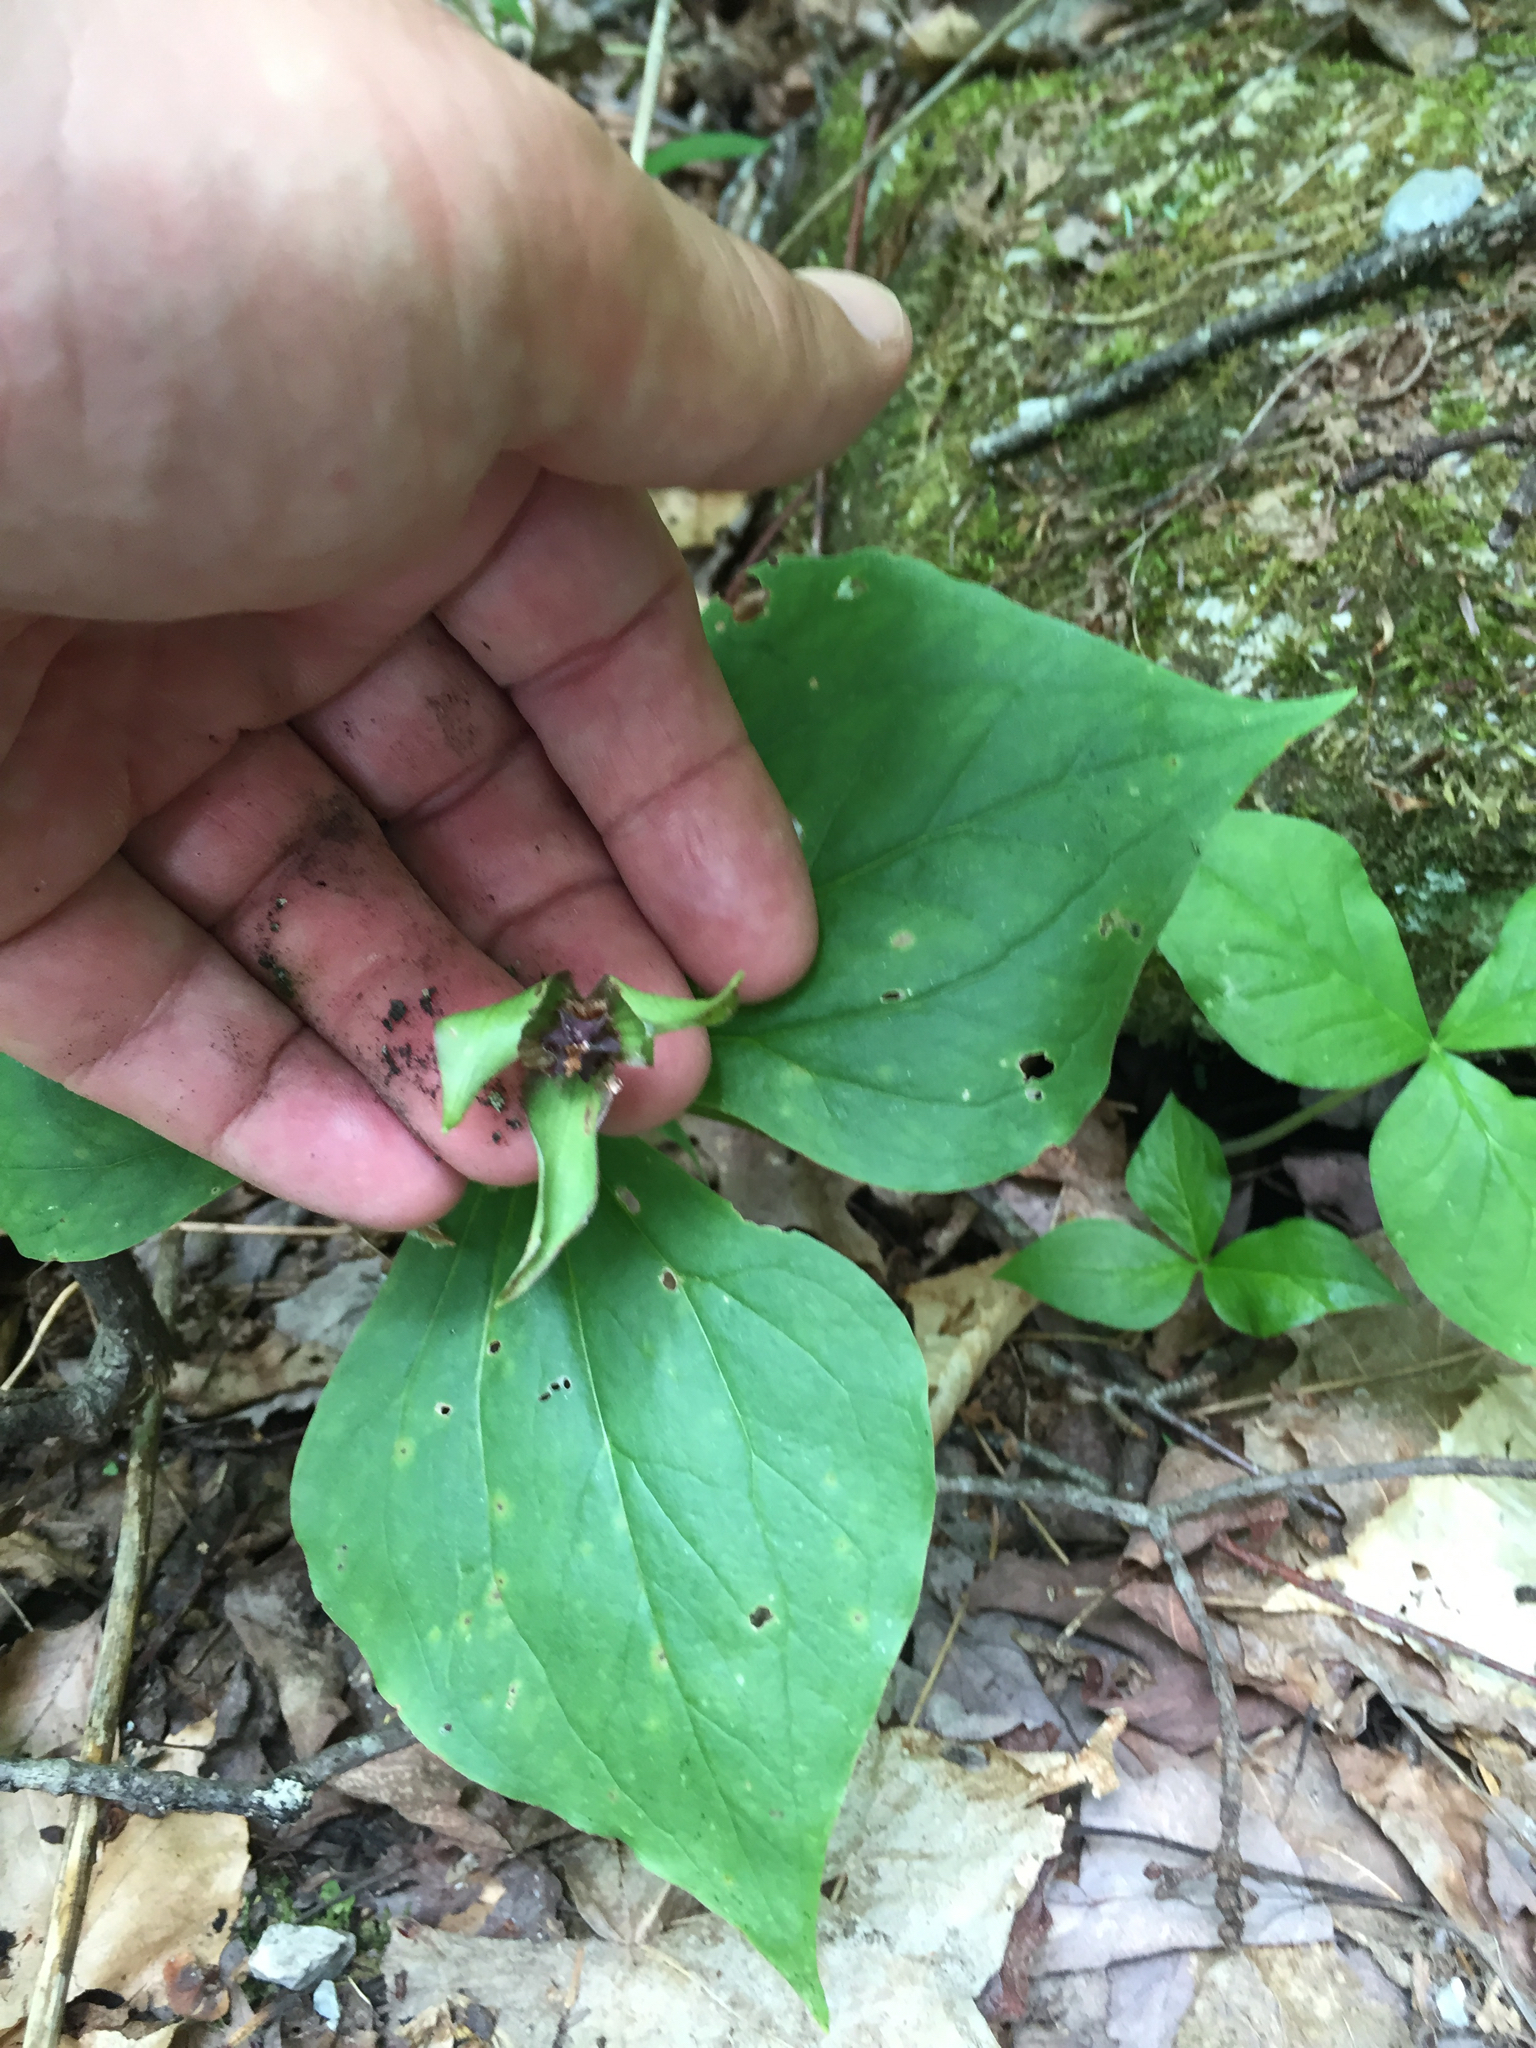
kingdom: Plantae
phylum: Tracheophyta
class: Liliopsida
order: Liliales
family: Melanthiaceae
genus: Trillium
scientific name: Trillium erectum
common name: Purple trillium
